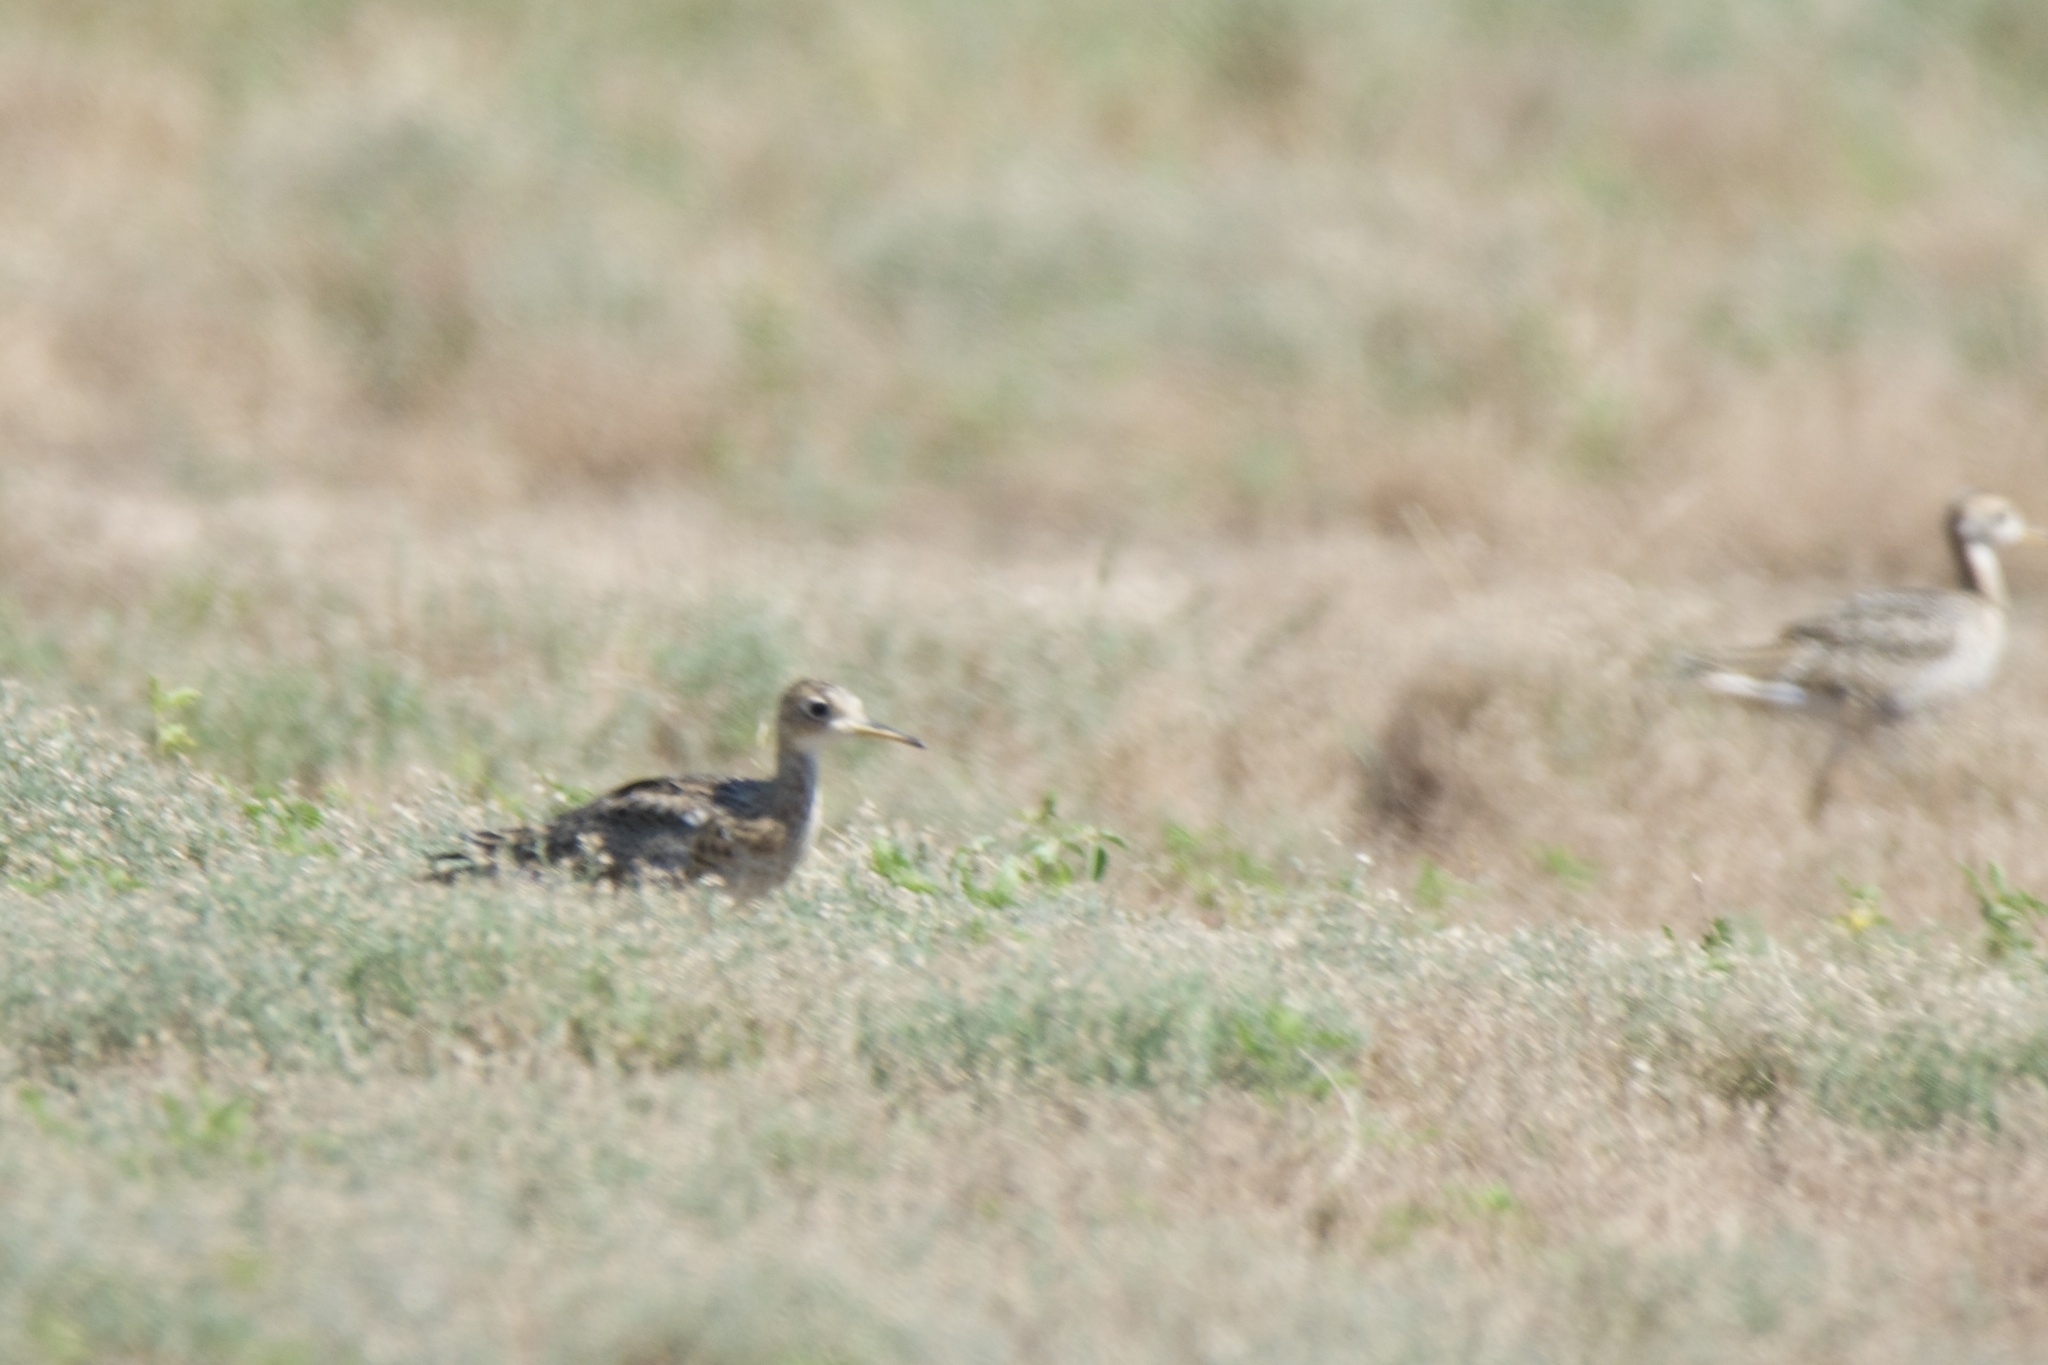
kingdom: Animalia
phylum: Chordata
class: Aves
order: Charadriiformes
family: Scolopacidae
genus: Bartramia
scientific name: Bartramia longicauda
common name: Upland sandpiper
